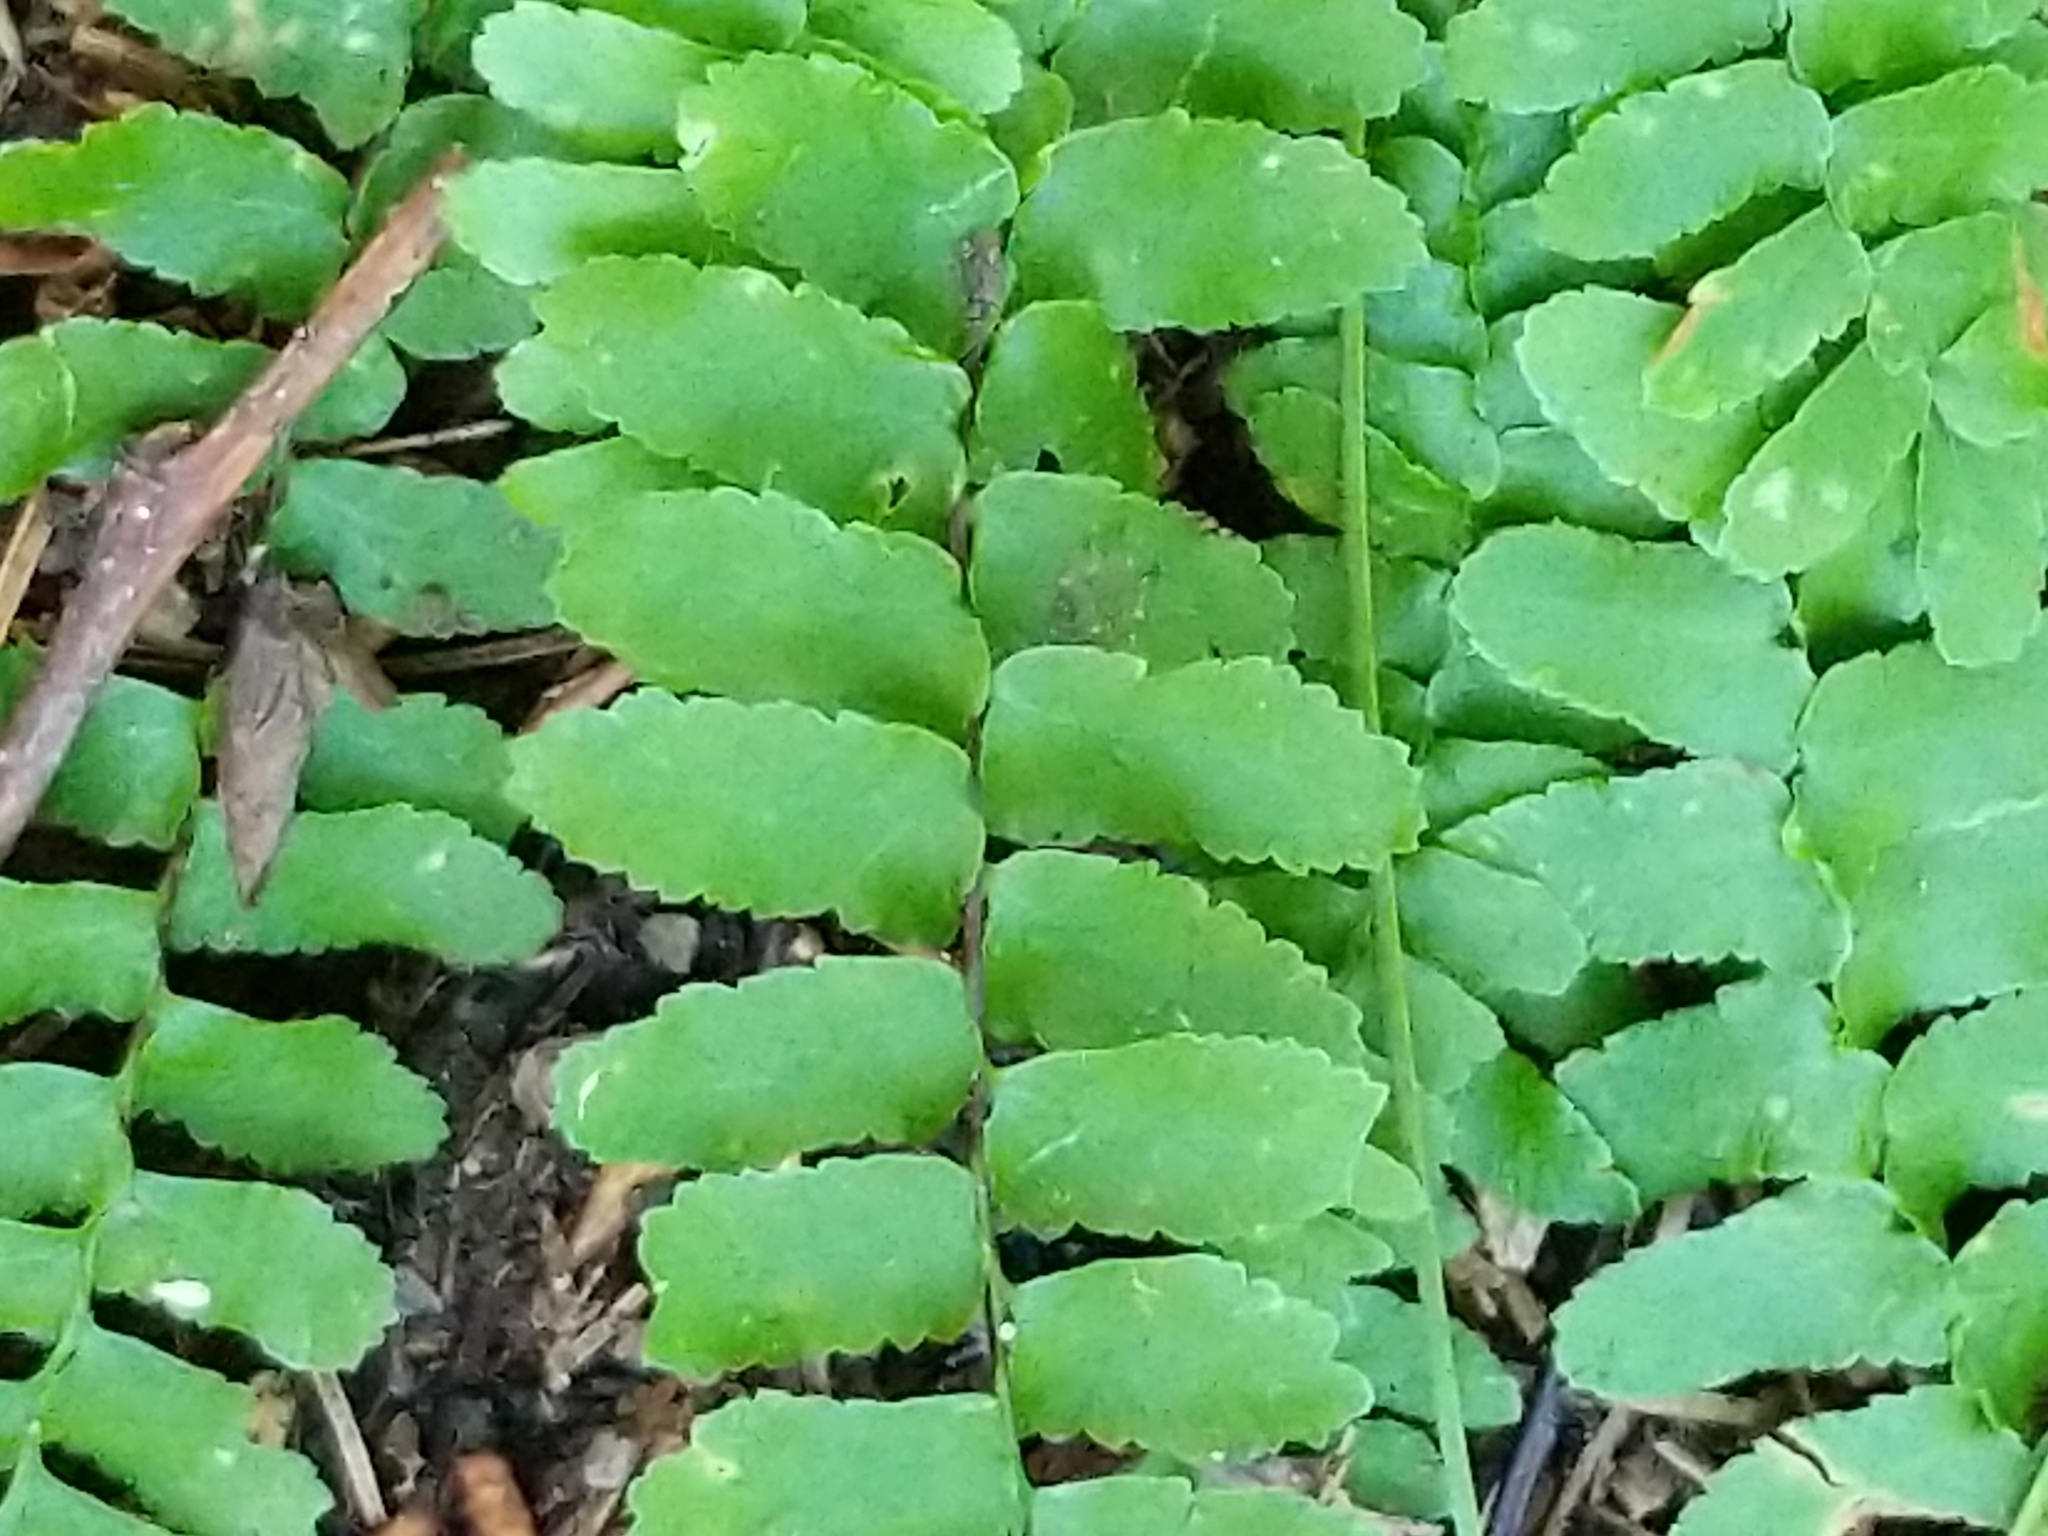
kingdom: Plantae
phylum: Tracheophyta
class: Polypodiopsida
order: Polypodiales
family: Aspleniaceae
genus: Asplenium
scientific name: Asplenium platyneuron
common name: Ebony spleenwort
